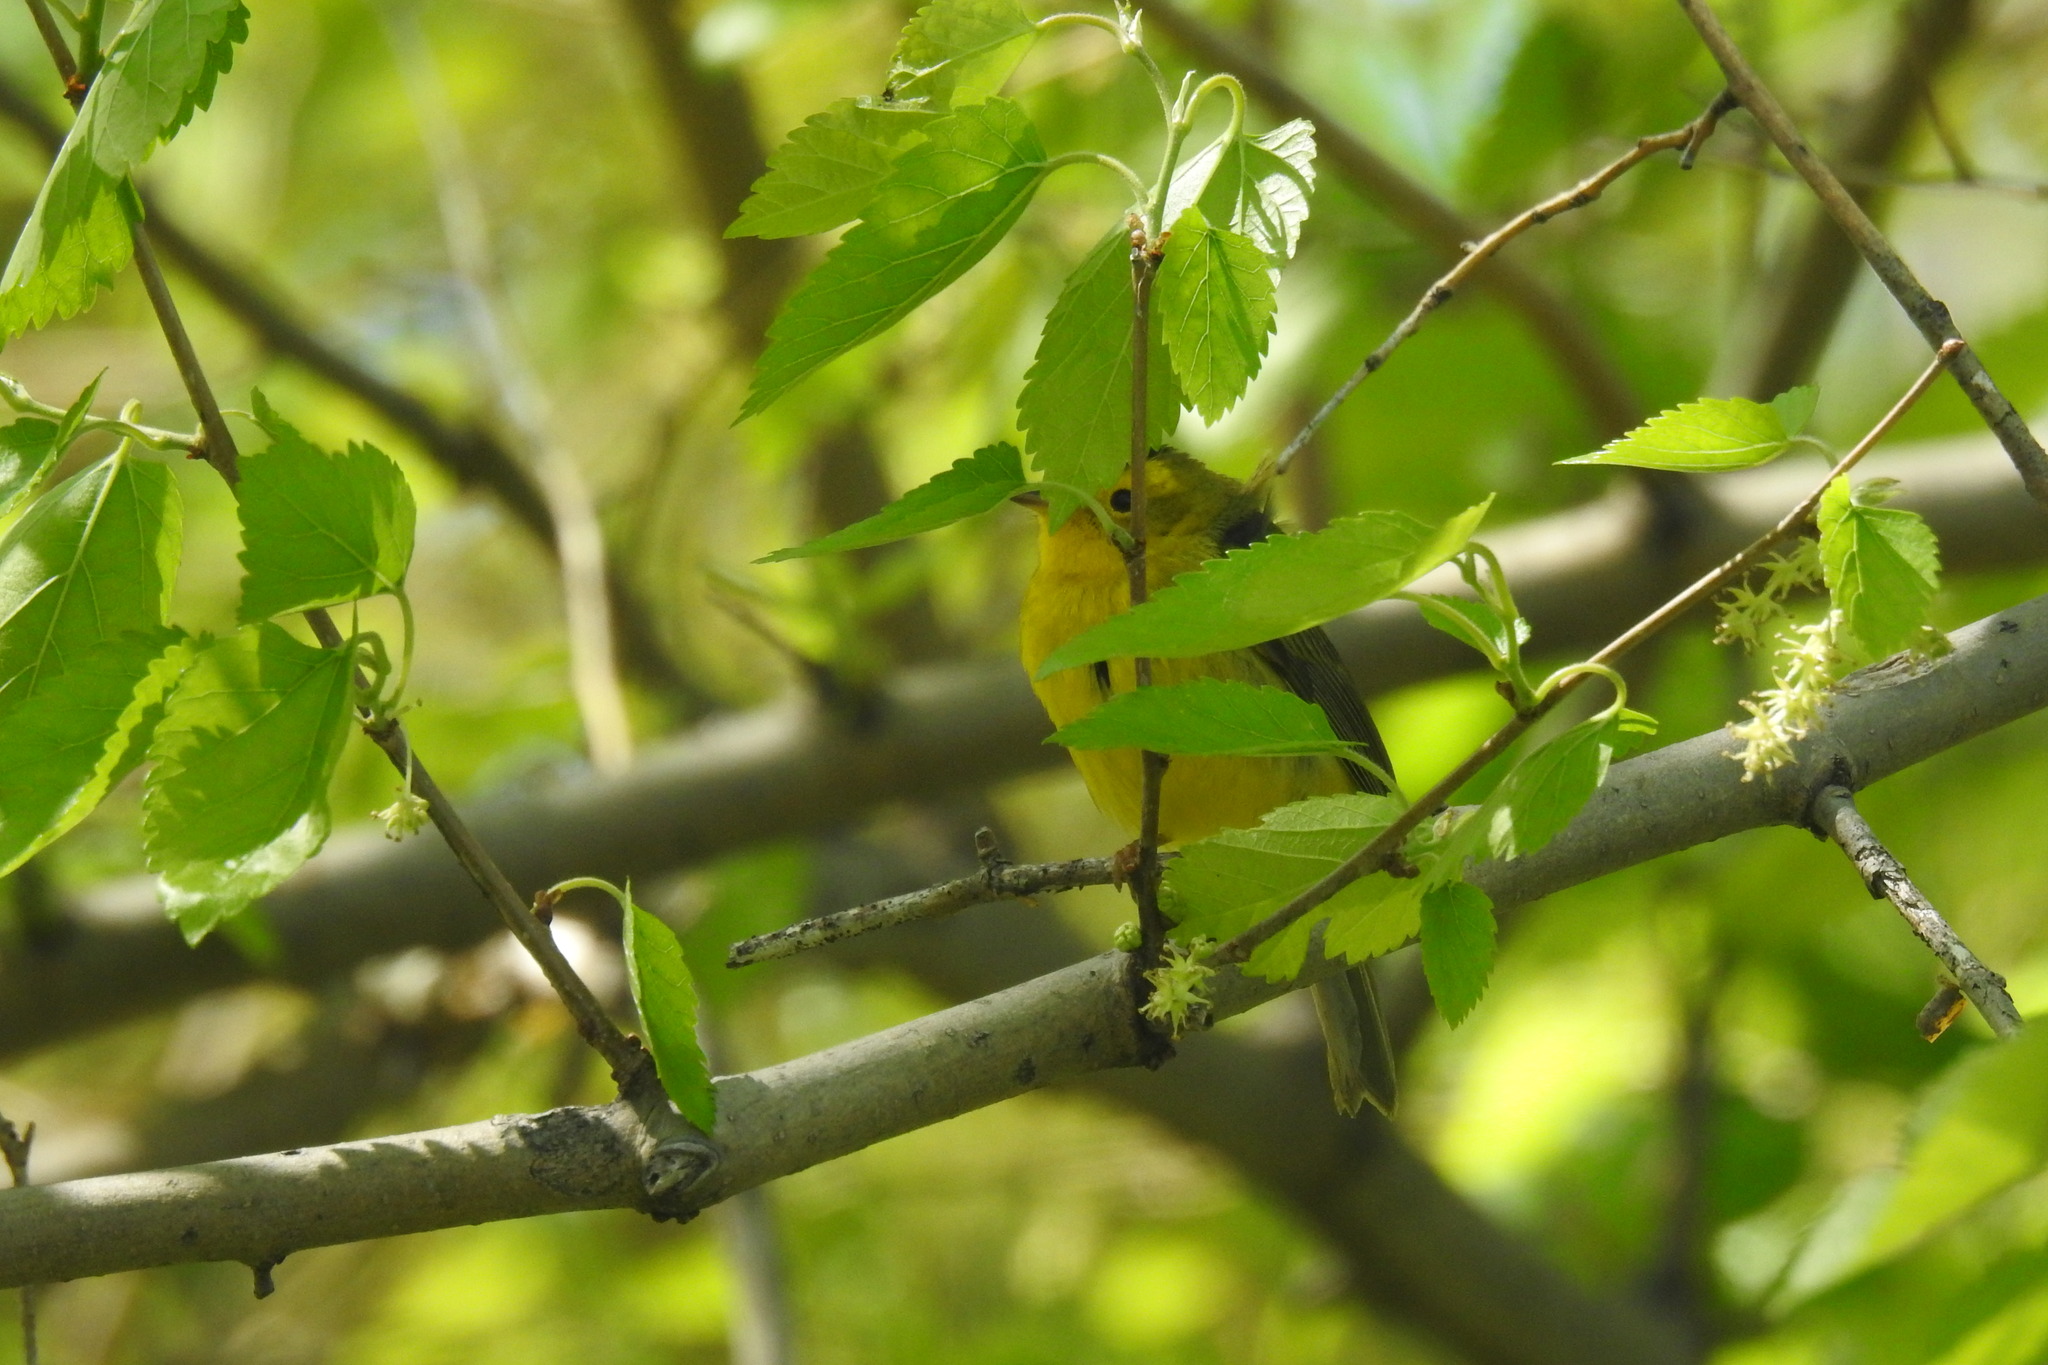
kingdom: Animalia
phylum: Chordata
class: Aves
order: Passeriformes
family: Parulidae
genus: Cardellina
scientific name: Cardellina pusilla
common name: Wilson's warbler
